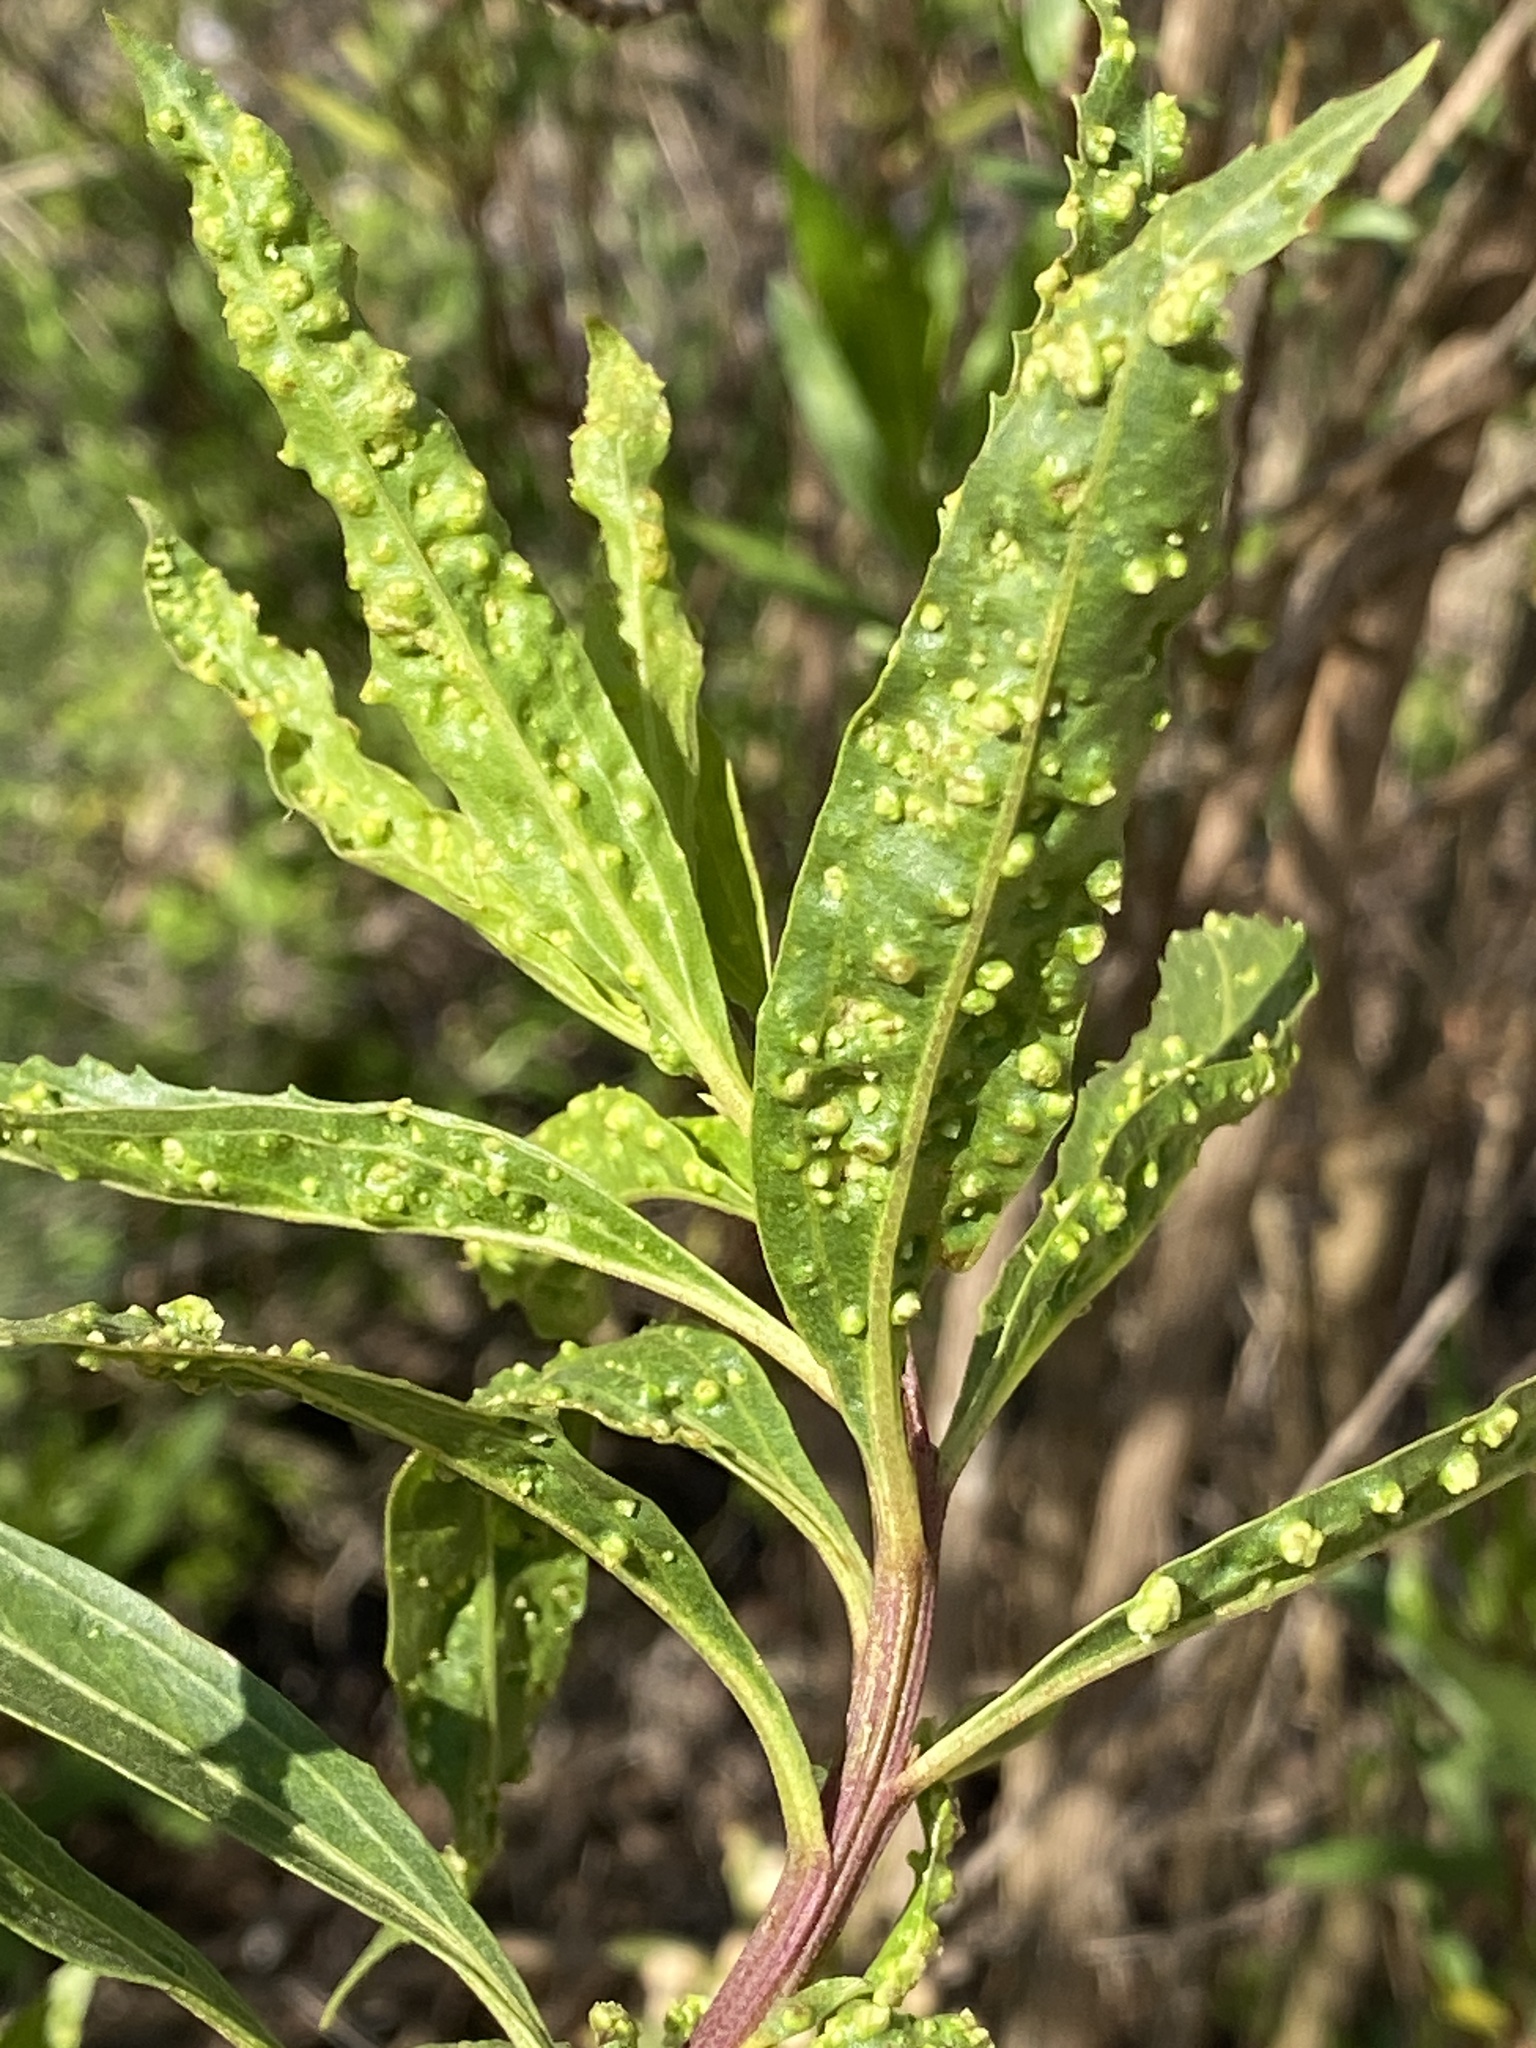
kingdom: Animalia
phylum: Arthropoda
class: Arachnida
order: Trombidiformes
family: Eriophyidae
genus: Aceria
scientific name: Aceria
